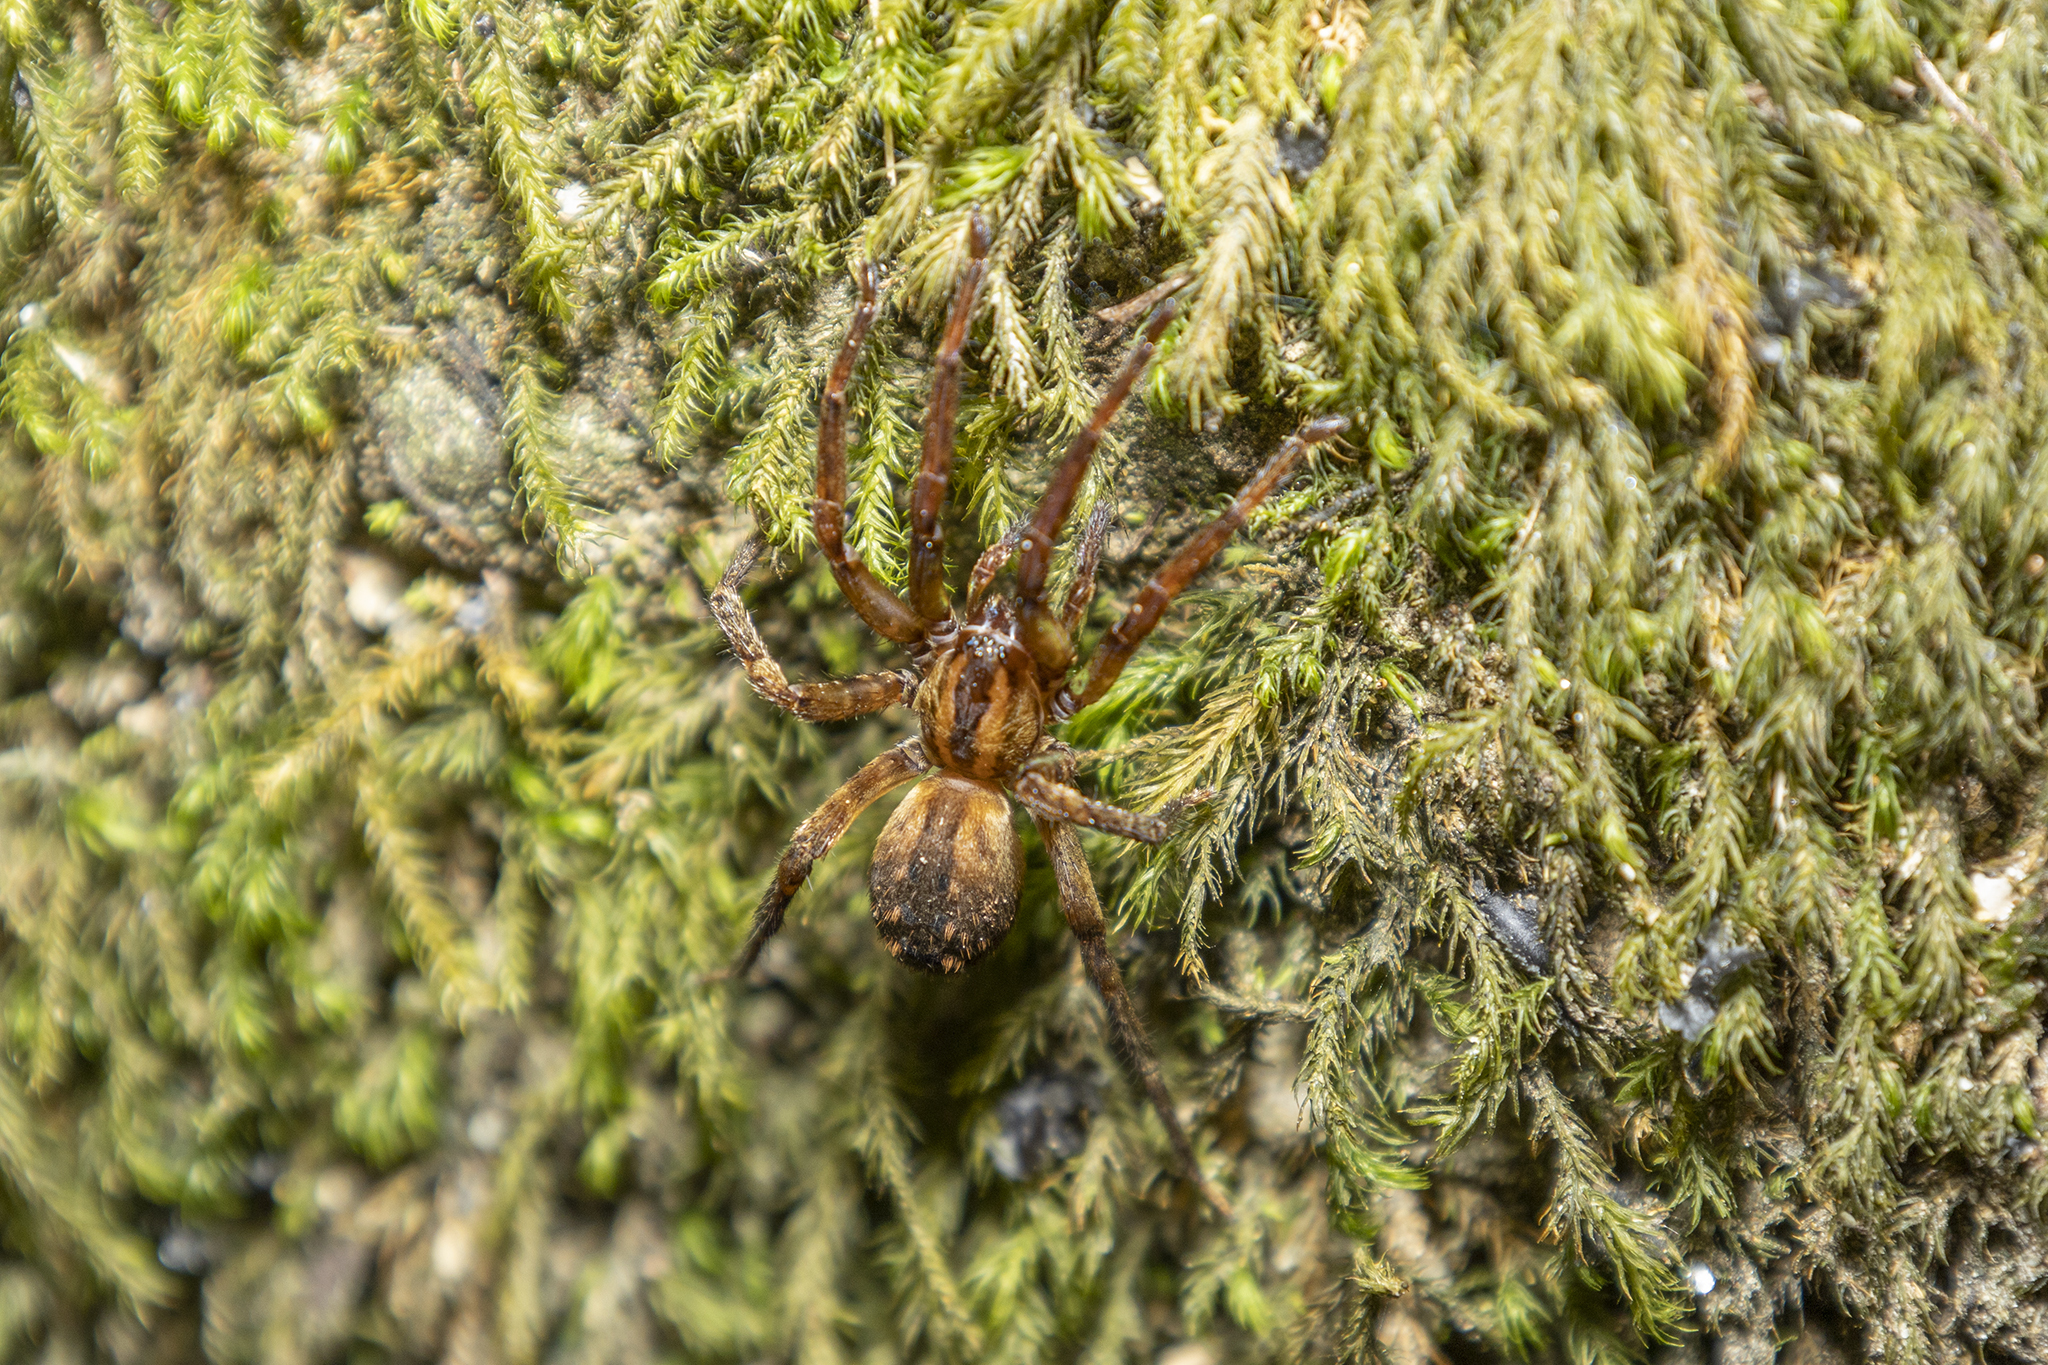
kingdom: Animalia
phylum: Arthropoda
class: Arachnida
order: Araneae
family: Gradungulidae
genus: Gradungula
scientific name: Gradungula sorenseni
